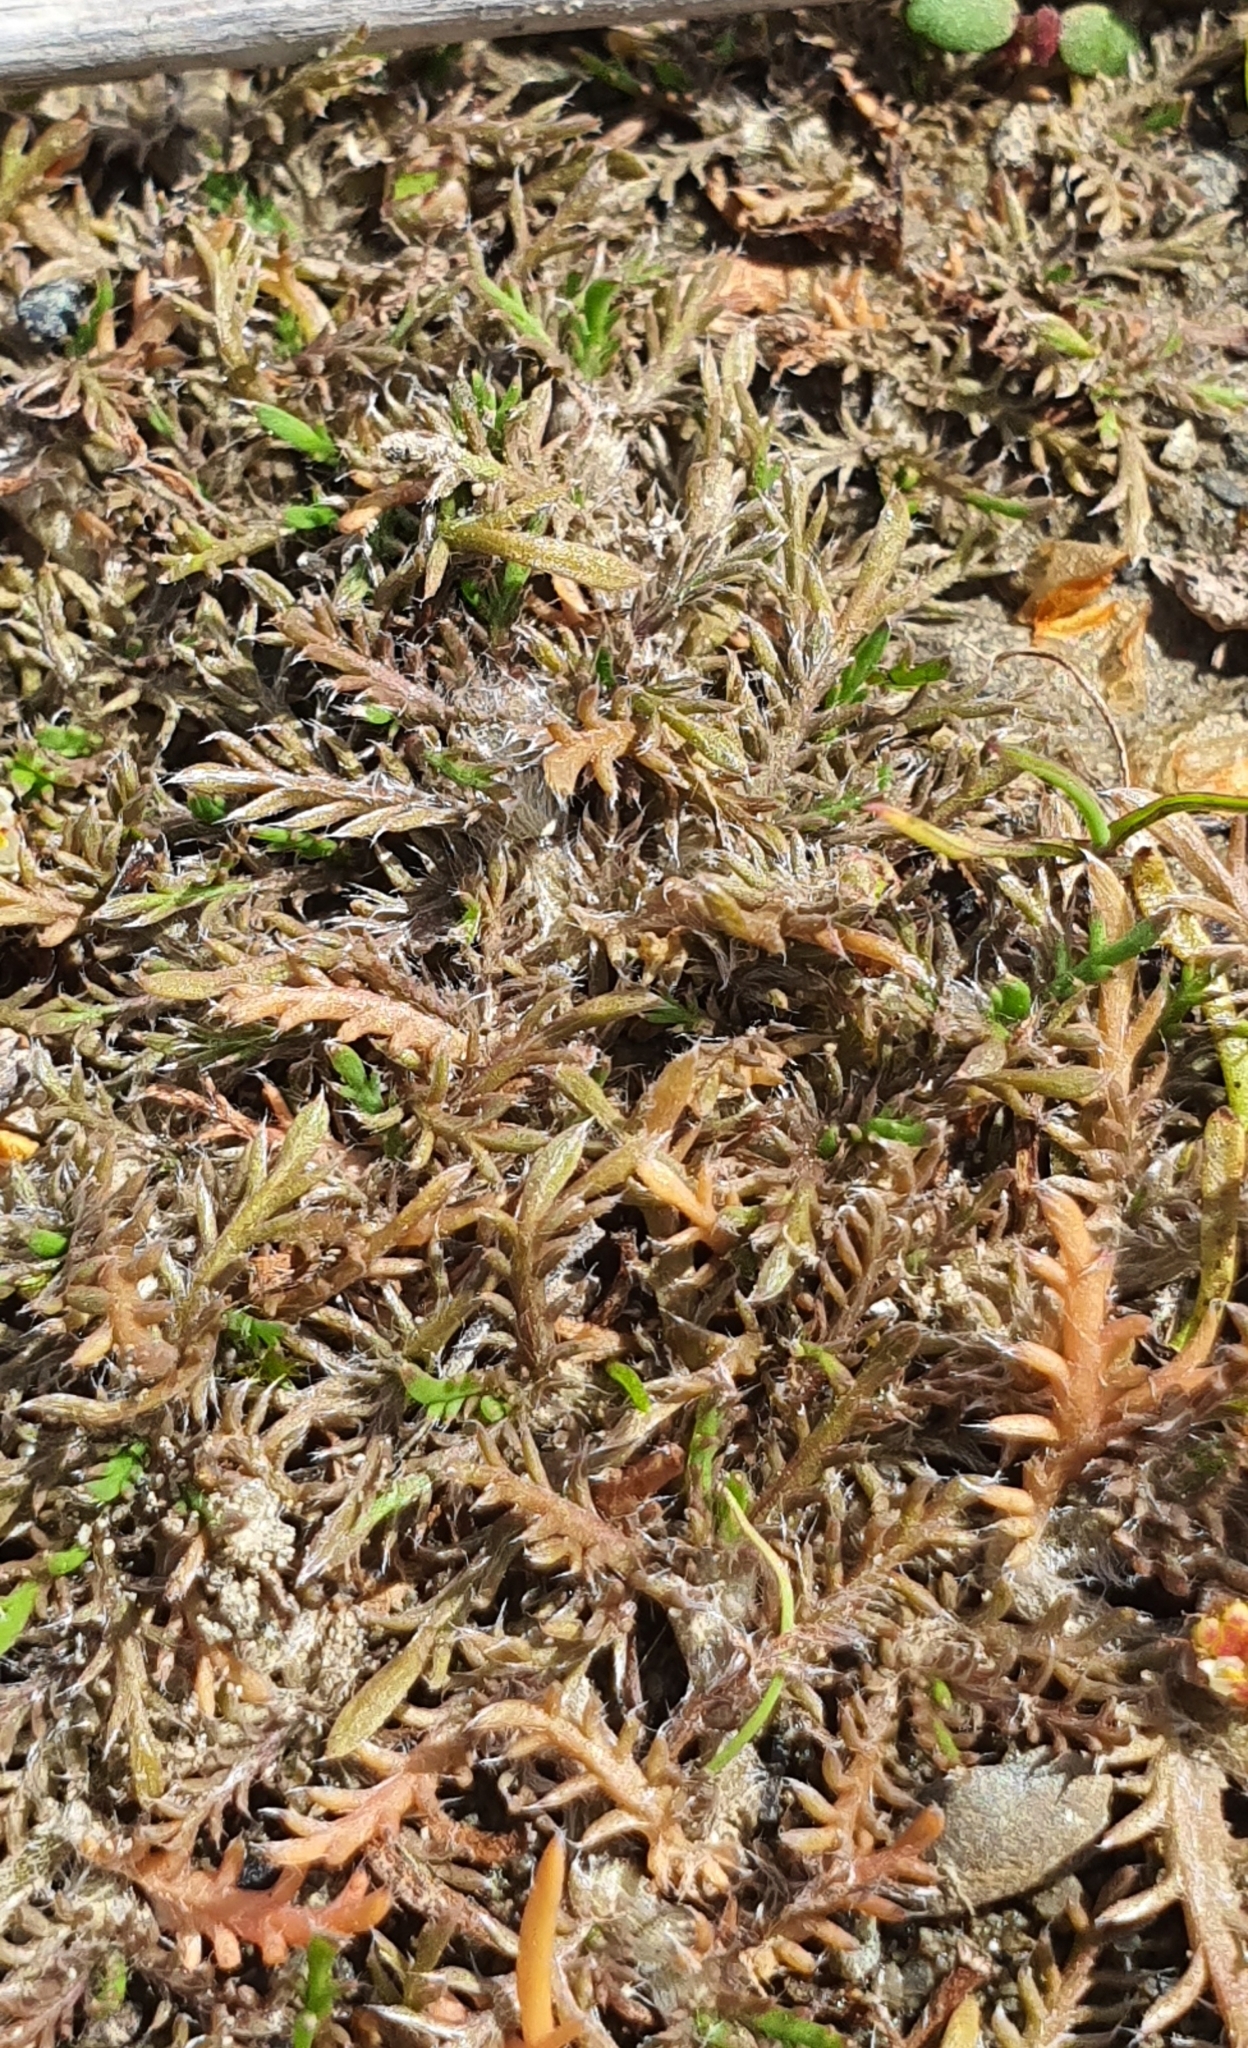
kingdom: Plantae
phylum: Tracheophyta
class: Magnoliopsida
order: Asterales
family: Asteraceae
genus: Leptinella
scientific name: Leptinella maniototo
